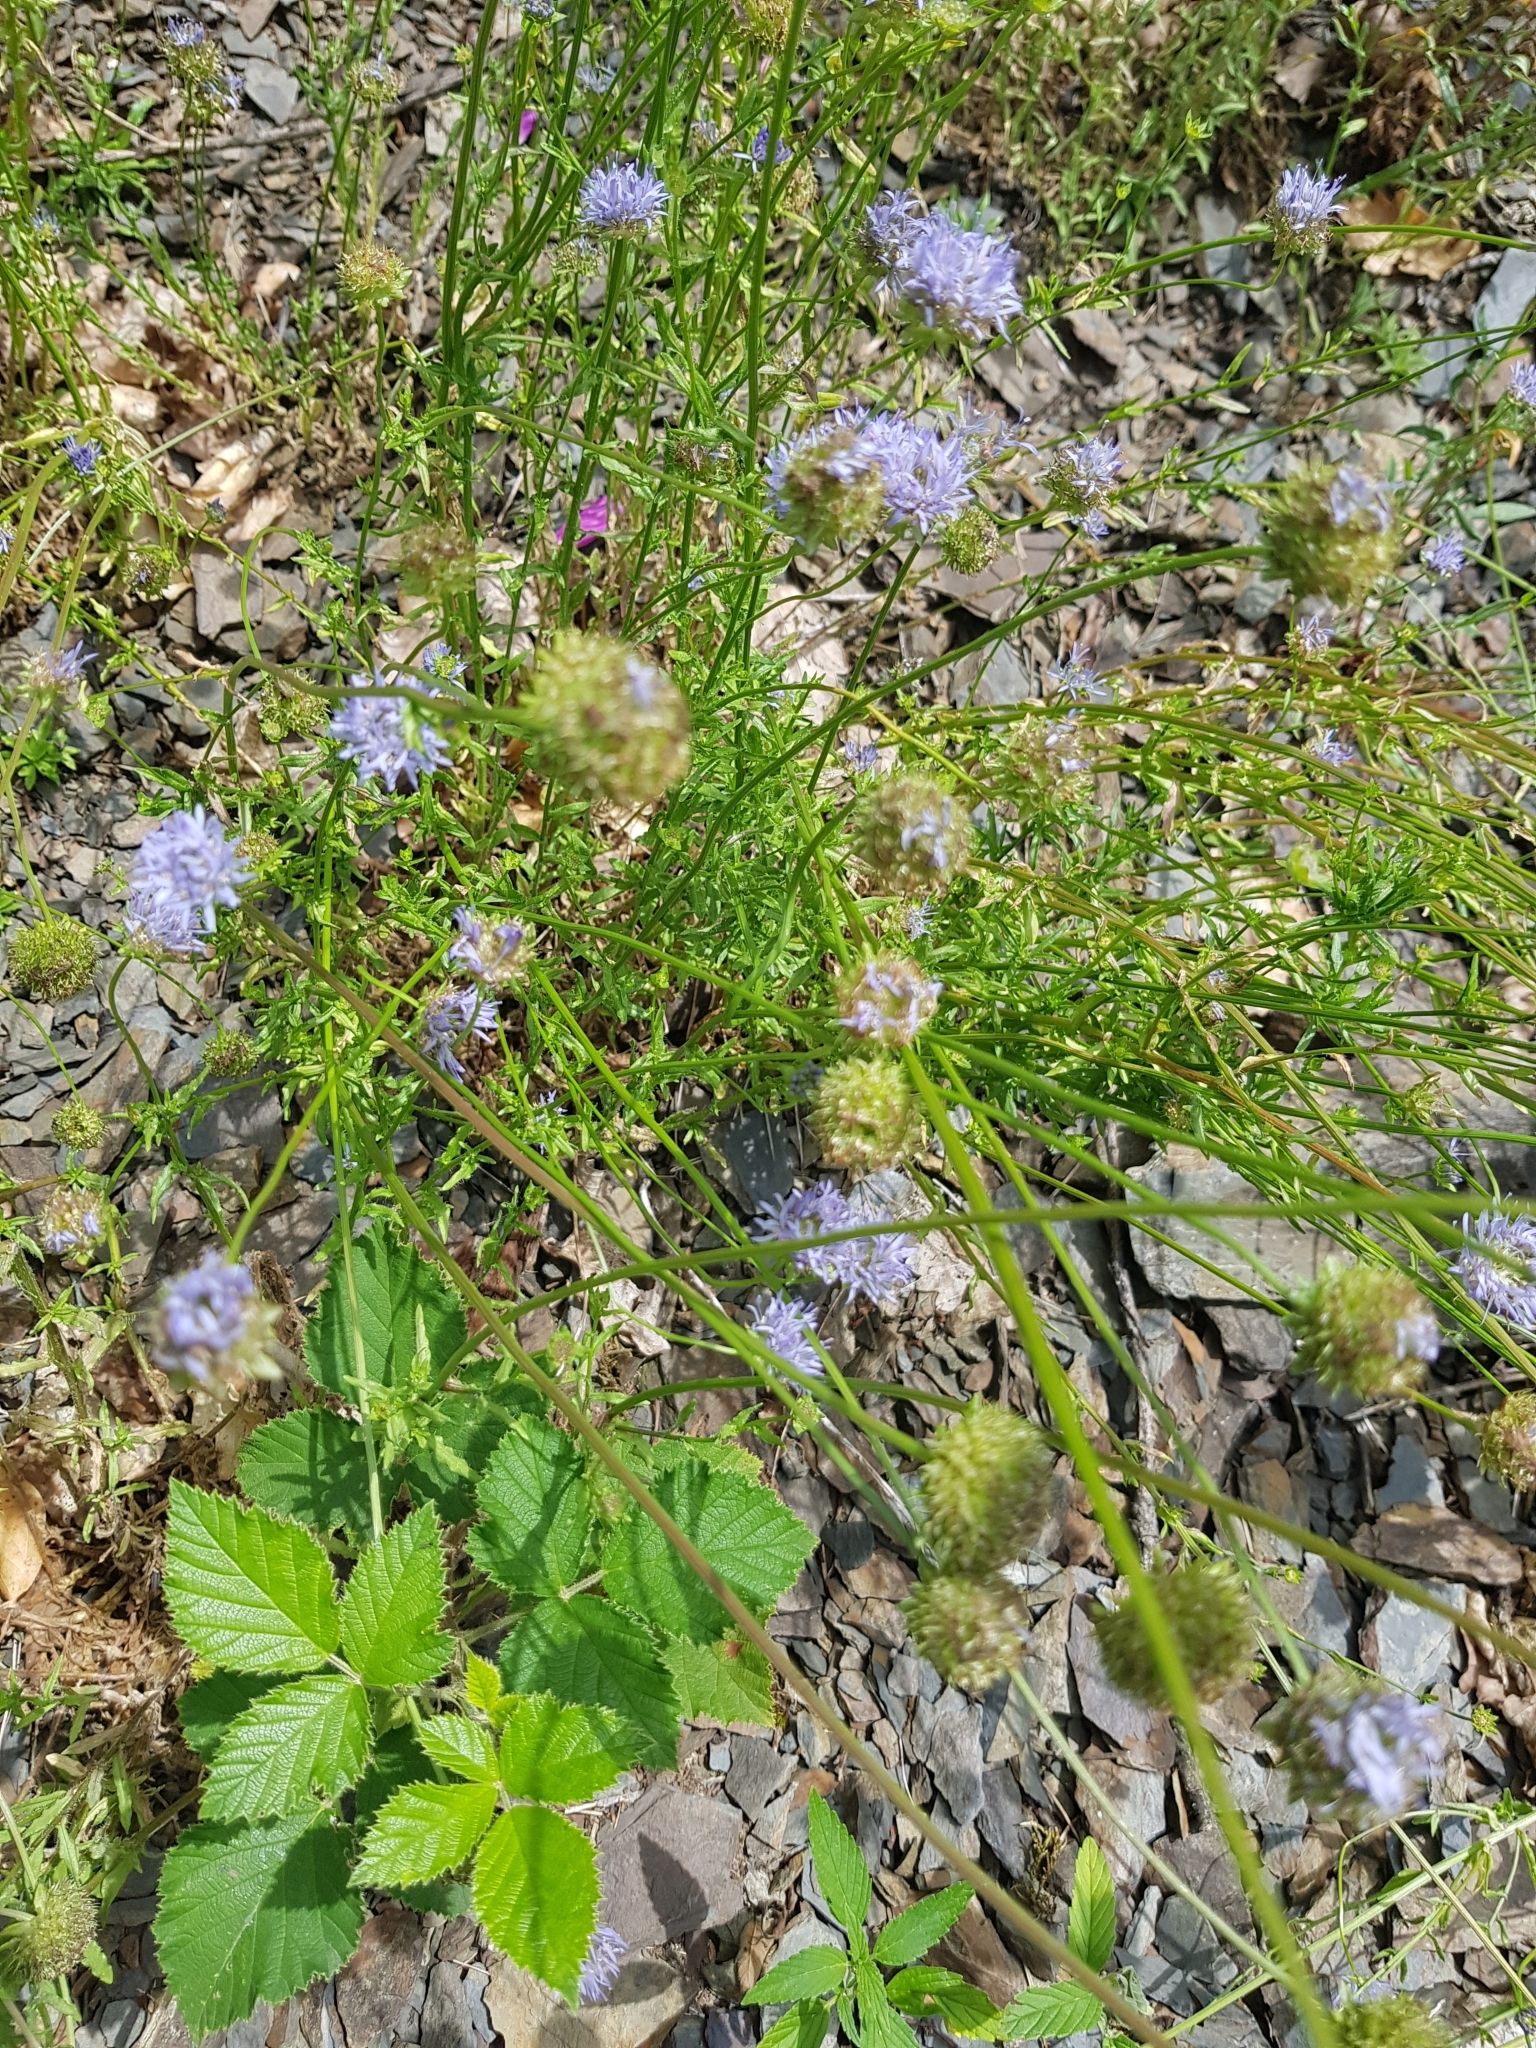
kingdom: Plantae
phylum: Tracheophyta
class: Magnoliopsida
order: Asterales
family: Campanulaceae
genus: Jasione
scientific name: Jasione montana
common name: Sheep's-bit
